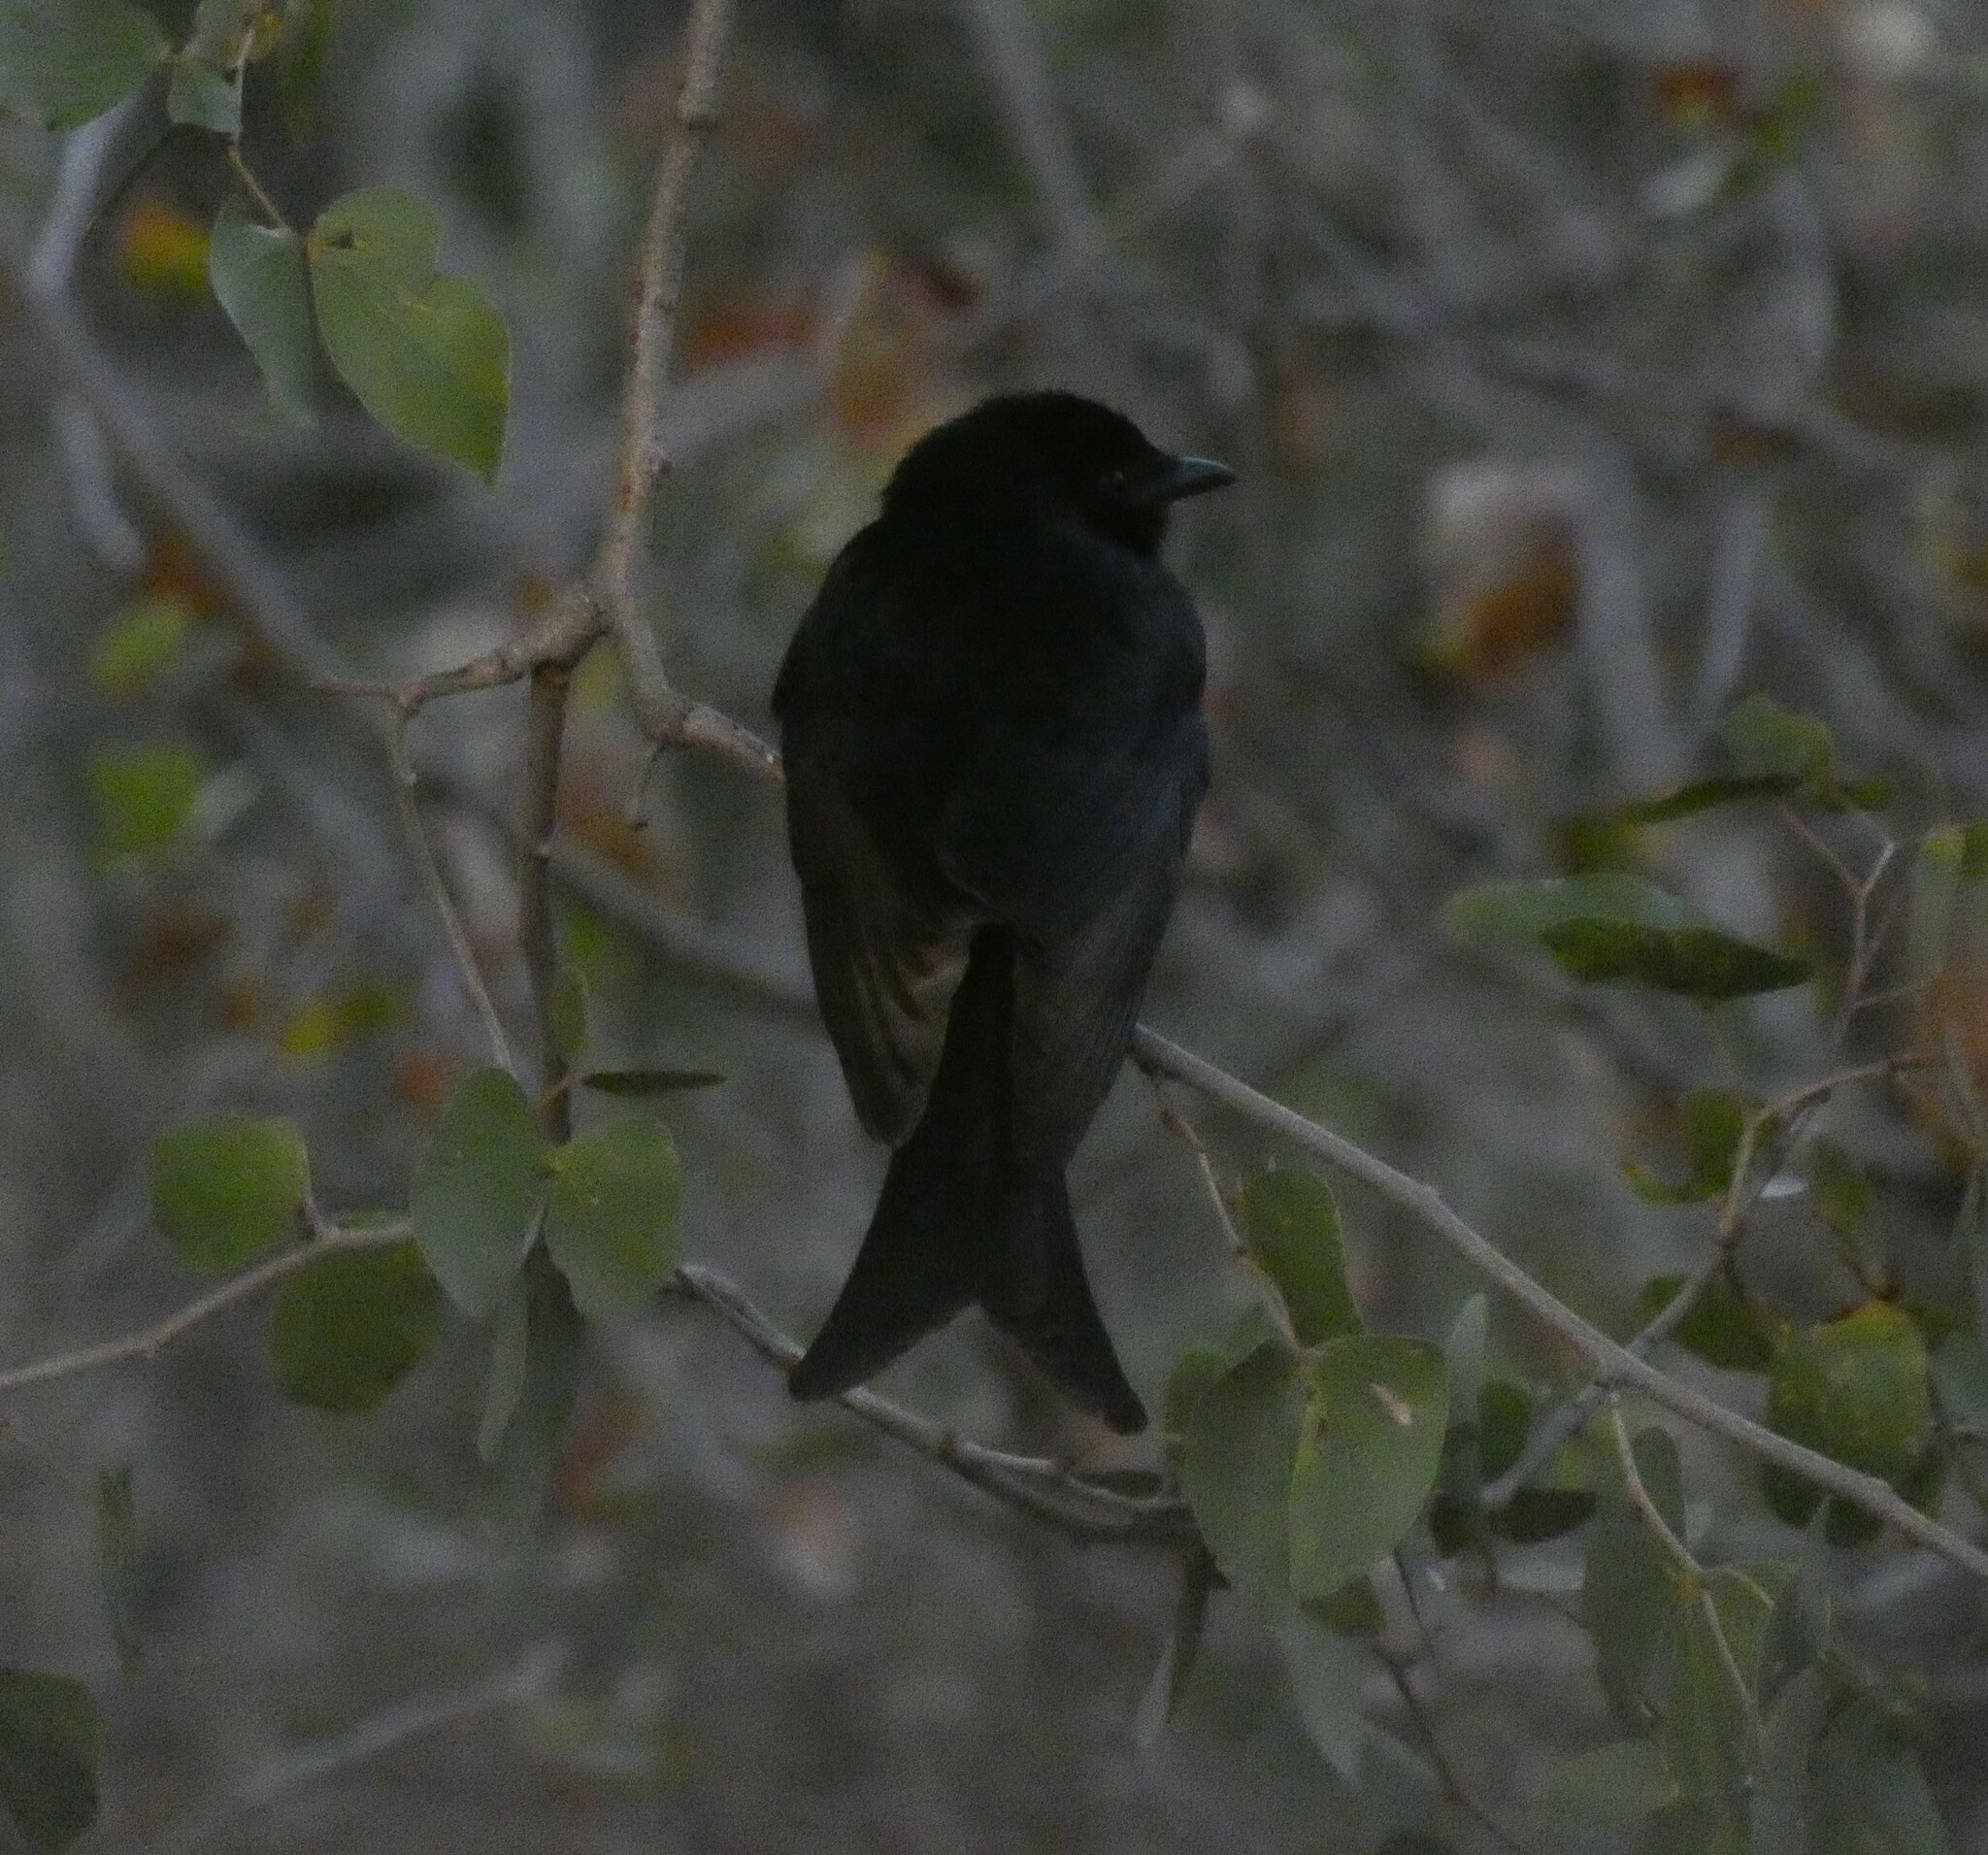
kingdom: Animalia
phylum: Chordata
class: Aves
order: Passeriformes
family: Dicruridae
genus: Dicrurus
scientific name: Dicrurus adsimilis
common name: Fork-tailed drongo
